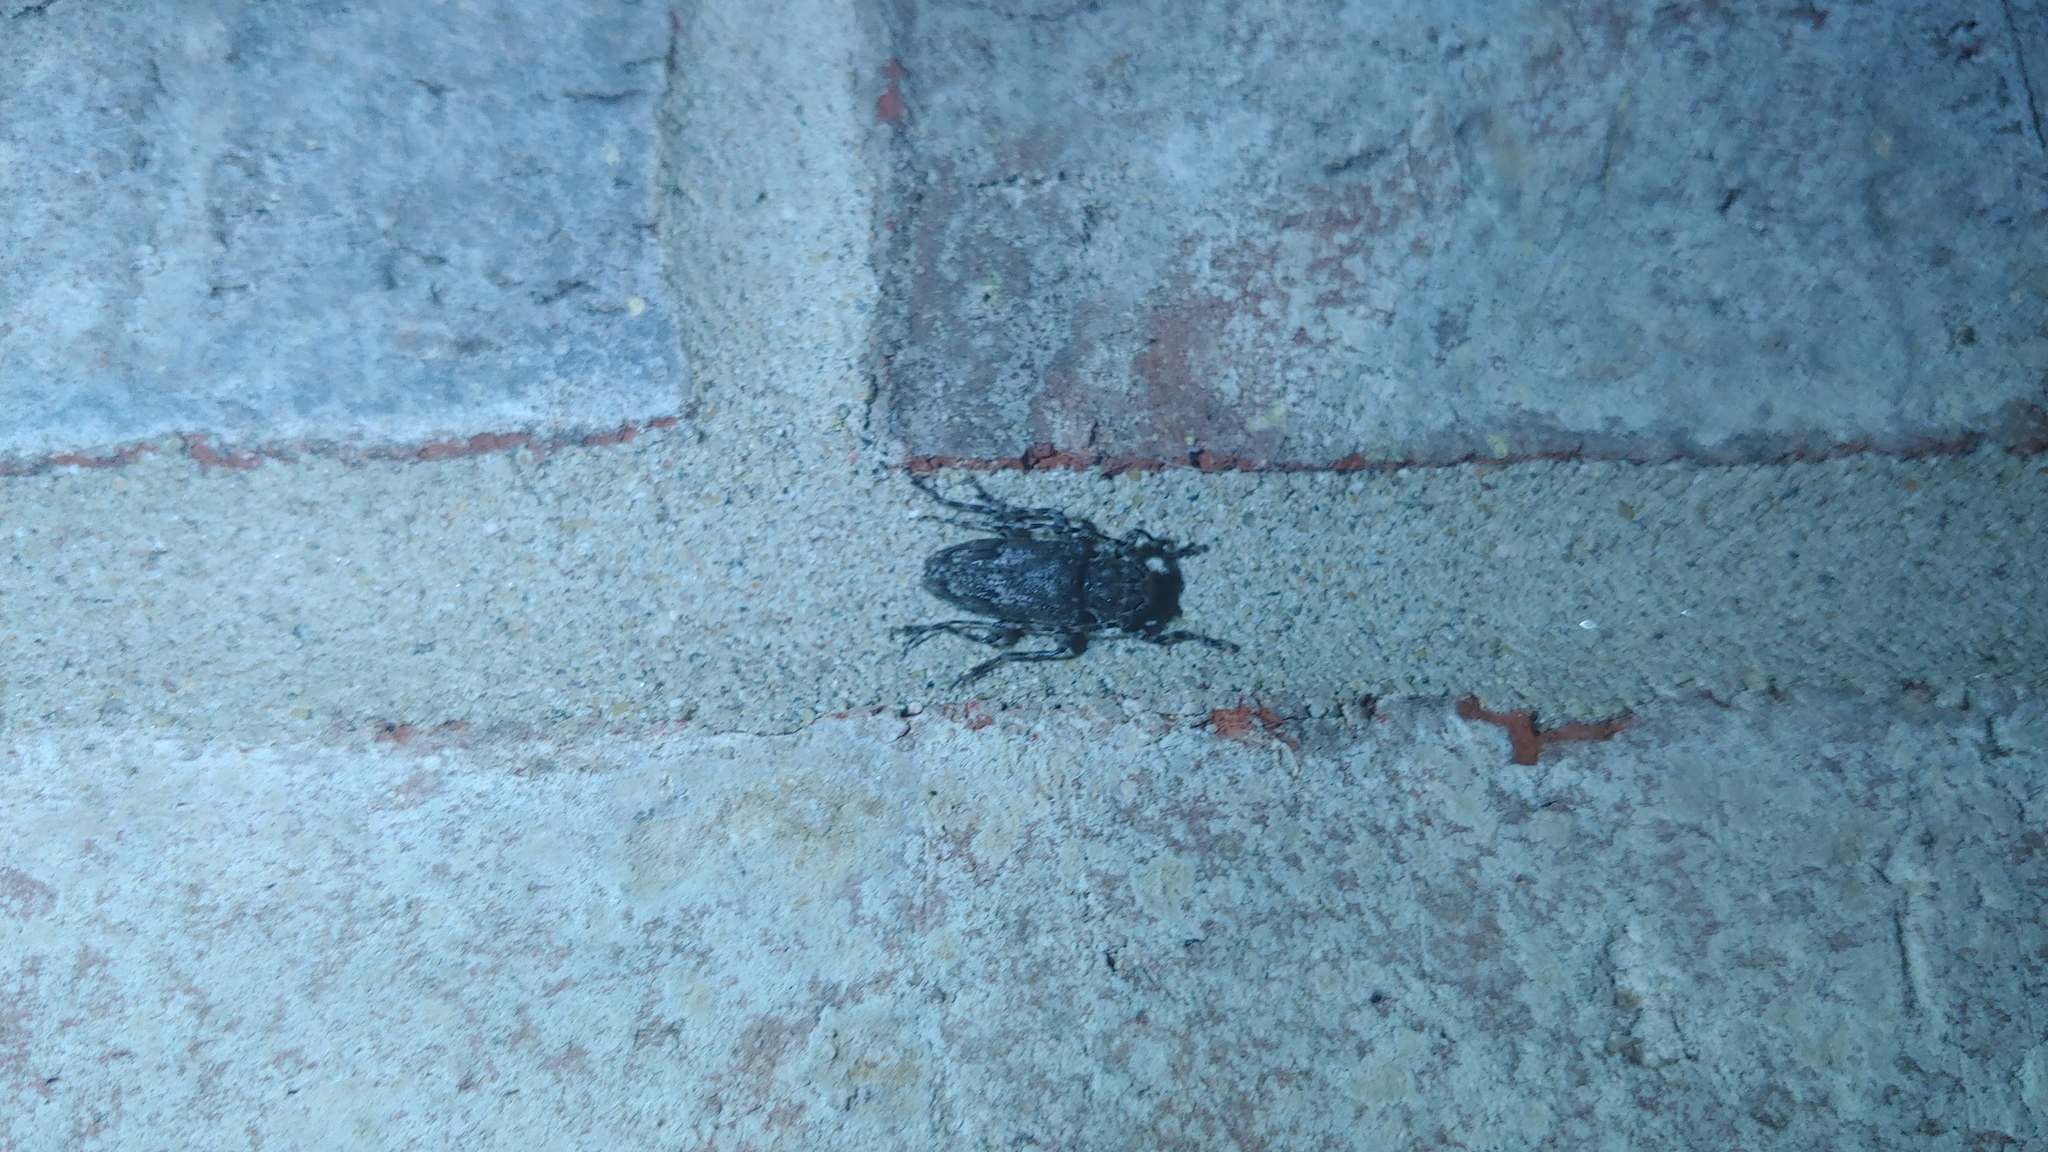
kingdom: Animalia
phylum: Arthropoda
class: Insecta
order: Coleoptera
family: Cerambycidae
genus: Aegomorphus
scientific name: Aegomorphus modestus
